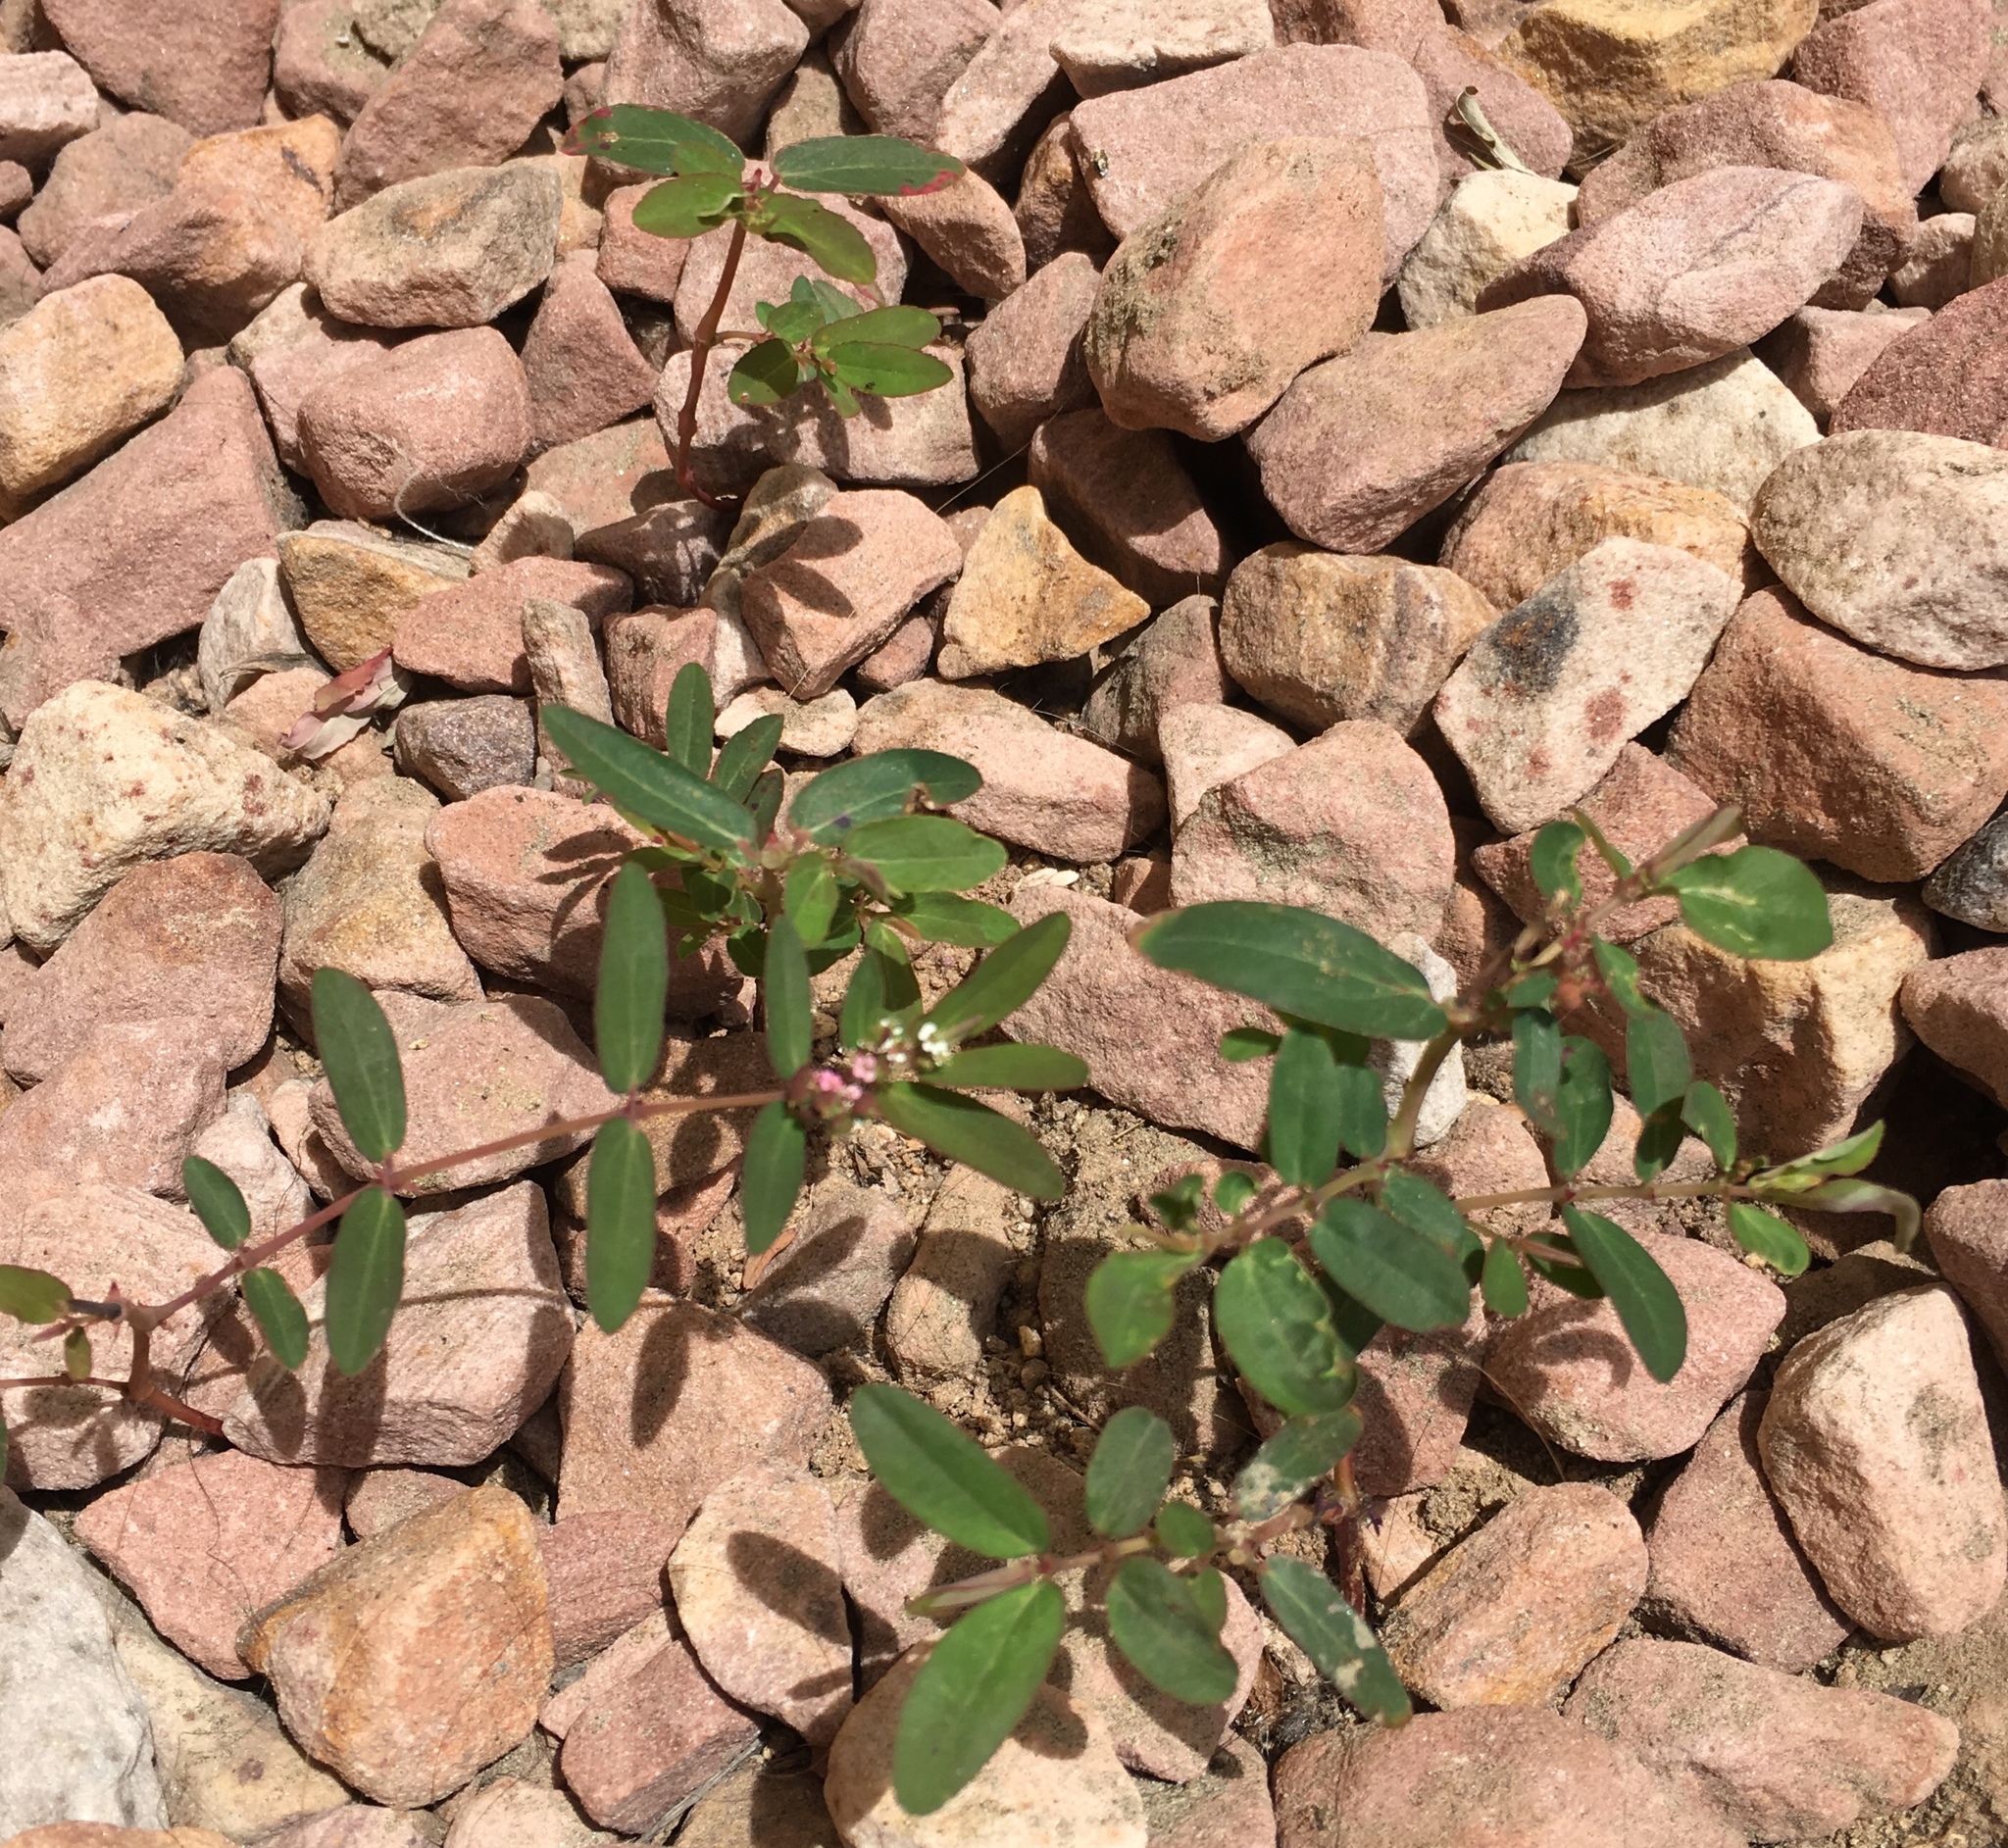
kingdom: Plantae
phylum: Tracheophyta
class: Magnoliopsida
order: Malpighiales
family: Euphorbiaceae
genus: Euphorbia
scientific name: Euphorbia hypericifolia
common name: Graceful sandmat
